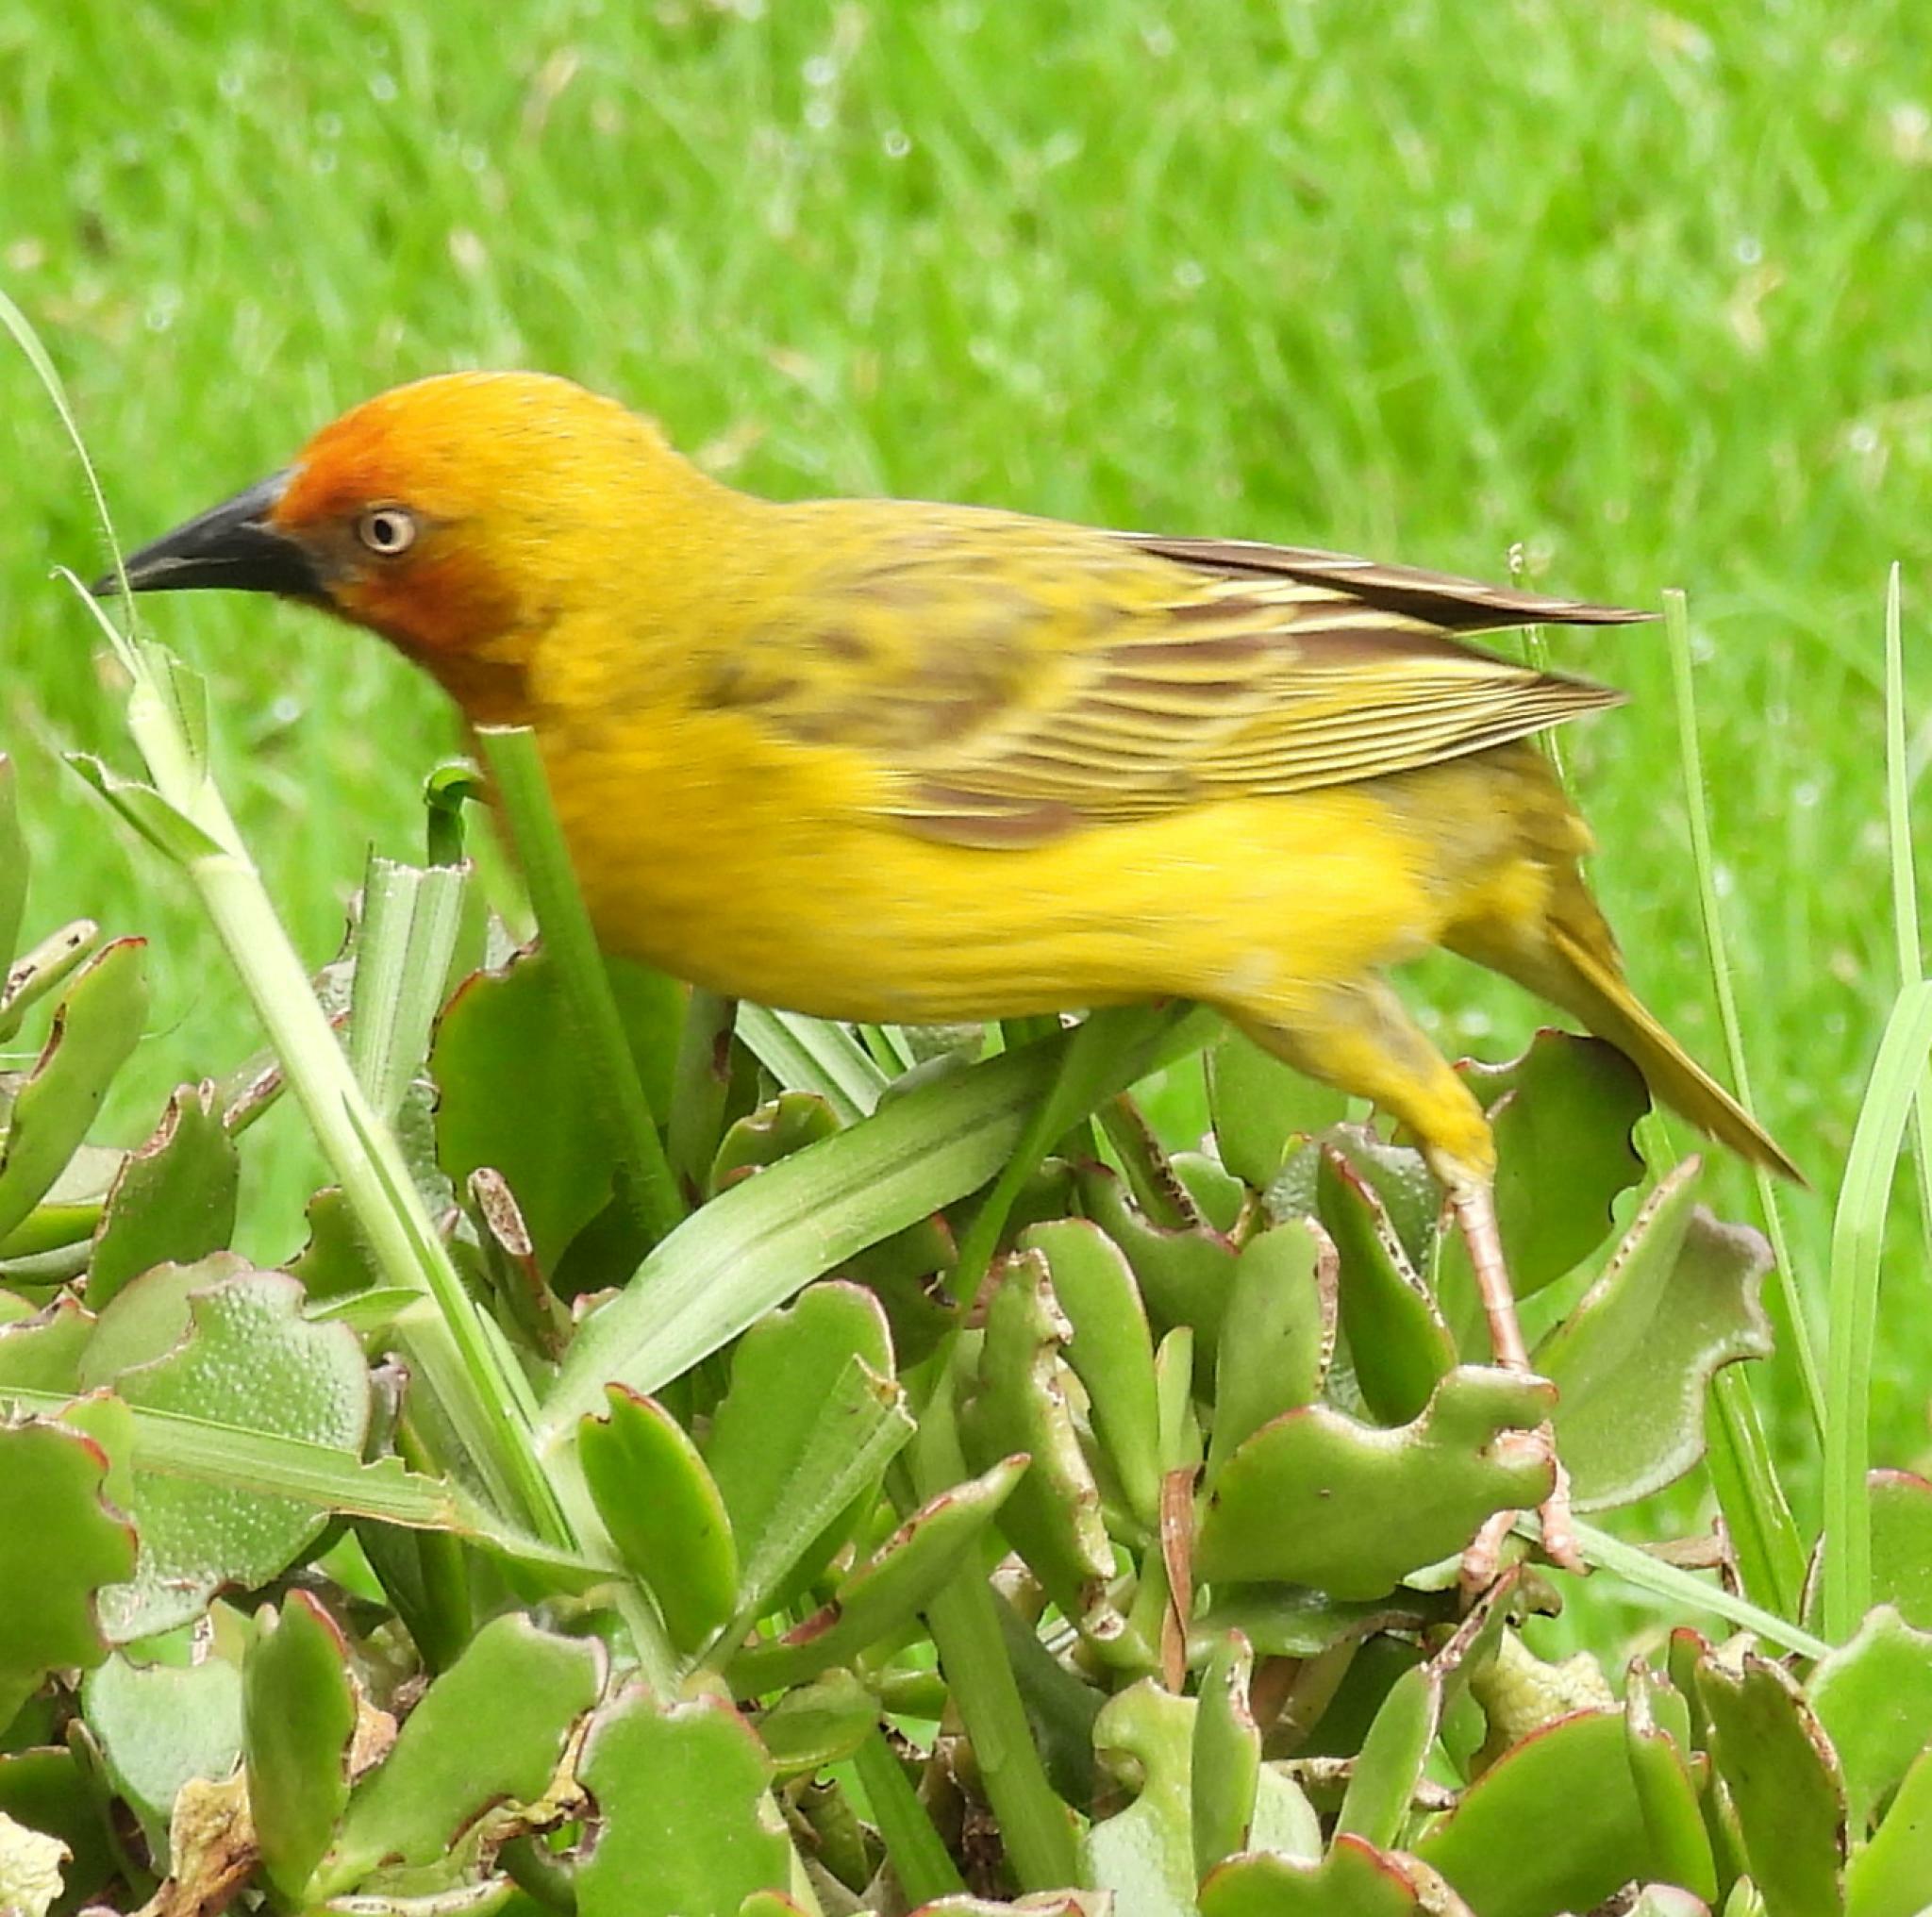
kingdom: Animalia
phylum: Chordata
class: Aves
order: Passeriformes
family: Ploceidae
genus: Ploceus
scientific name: Ploceus capensis
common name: Cape weaver
